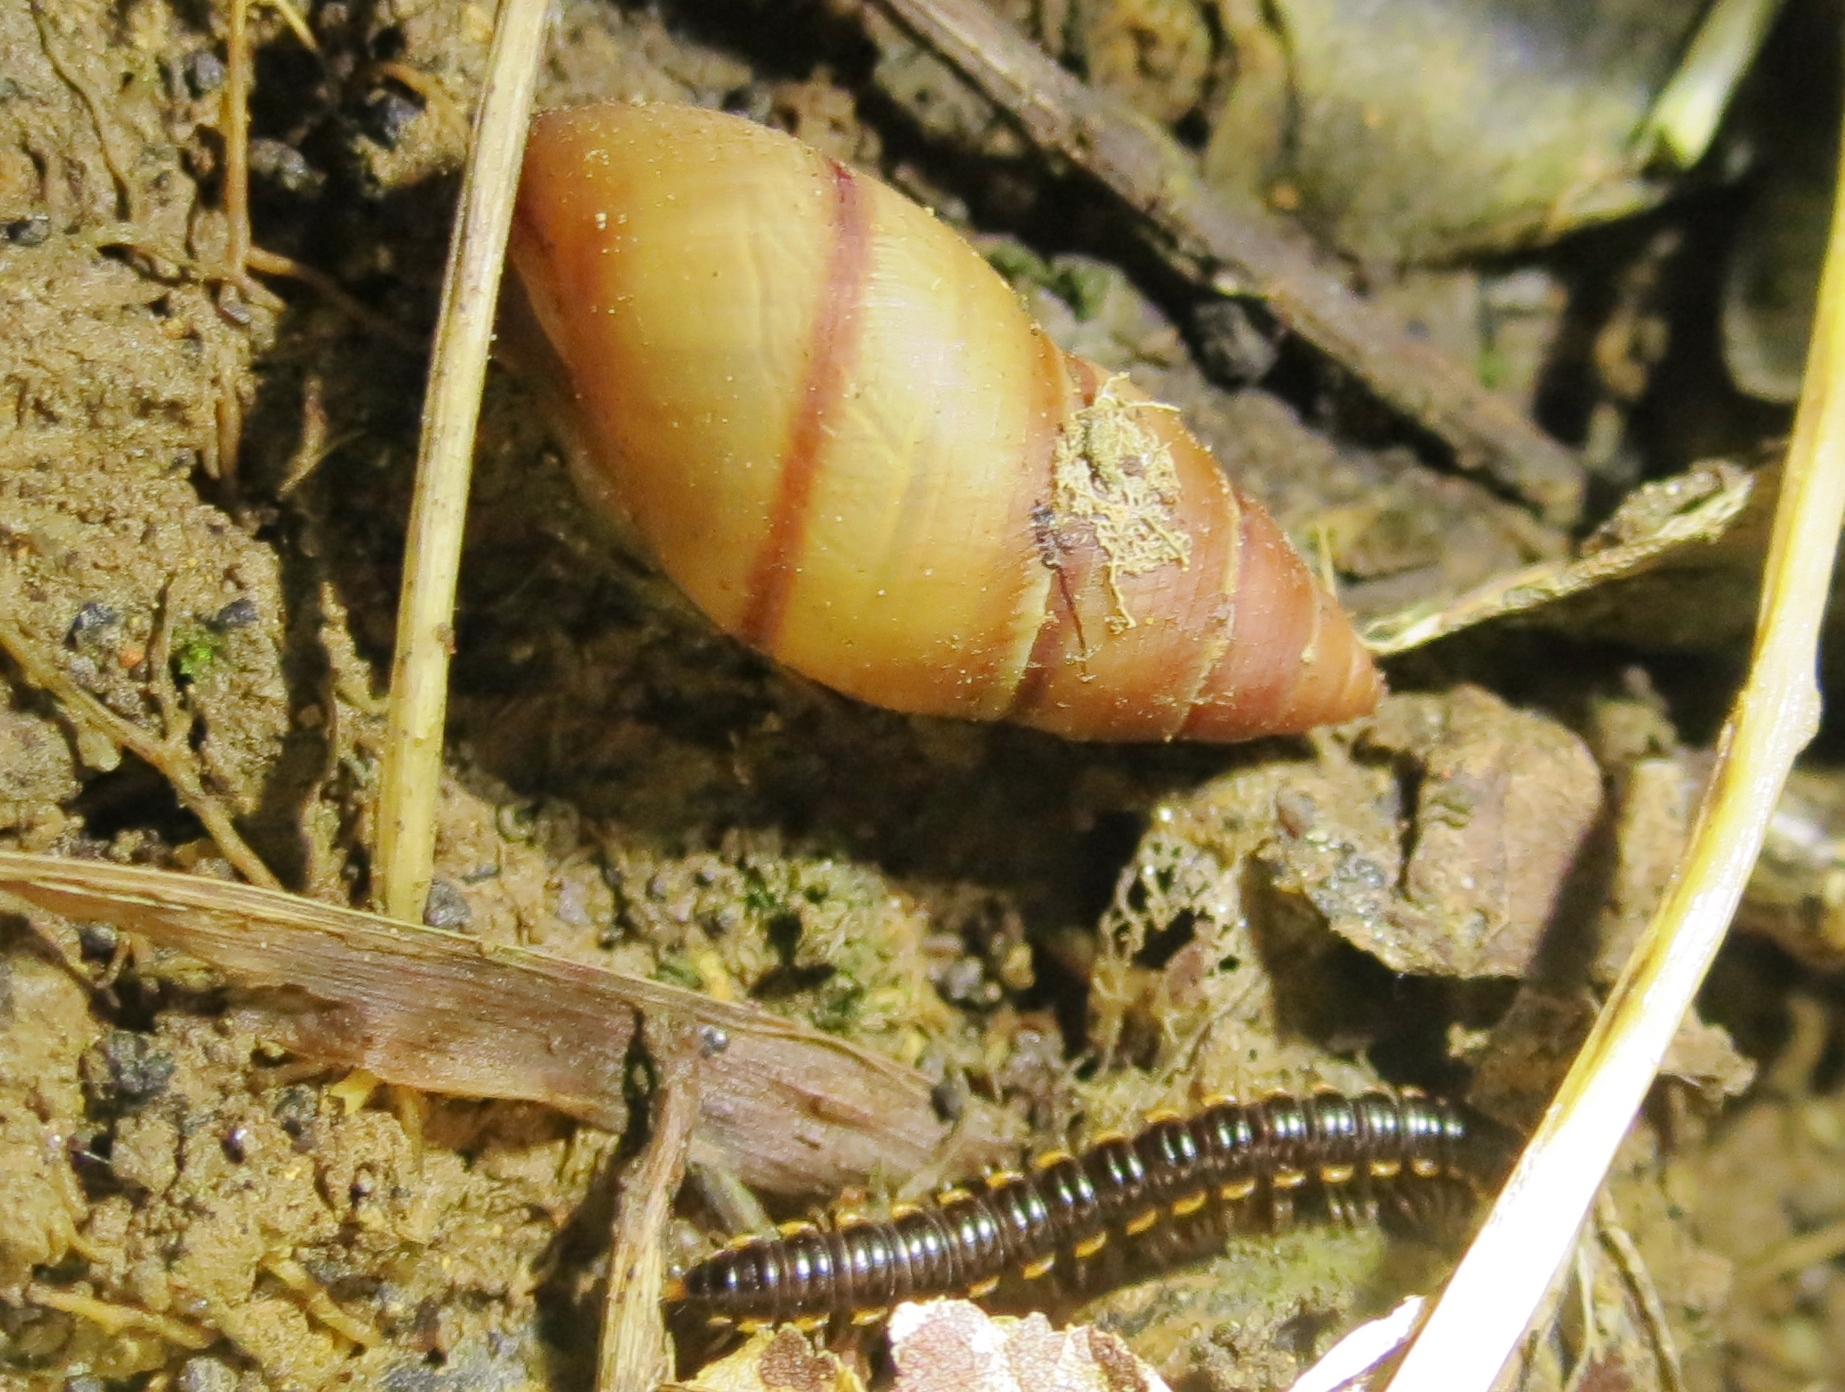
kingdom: Animalia
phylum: Mollusca
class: Gastropoda
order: Stylommatophora
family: Bulimulidae
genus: Bulimulus
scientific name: Bulimulus guadalupensis
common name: West indian bulimulus
